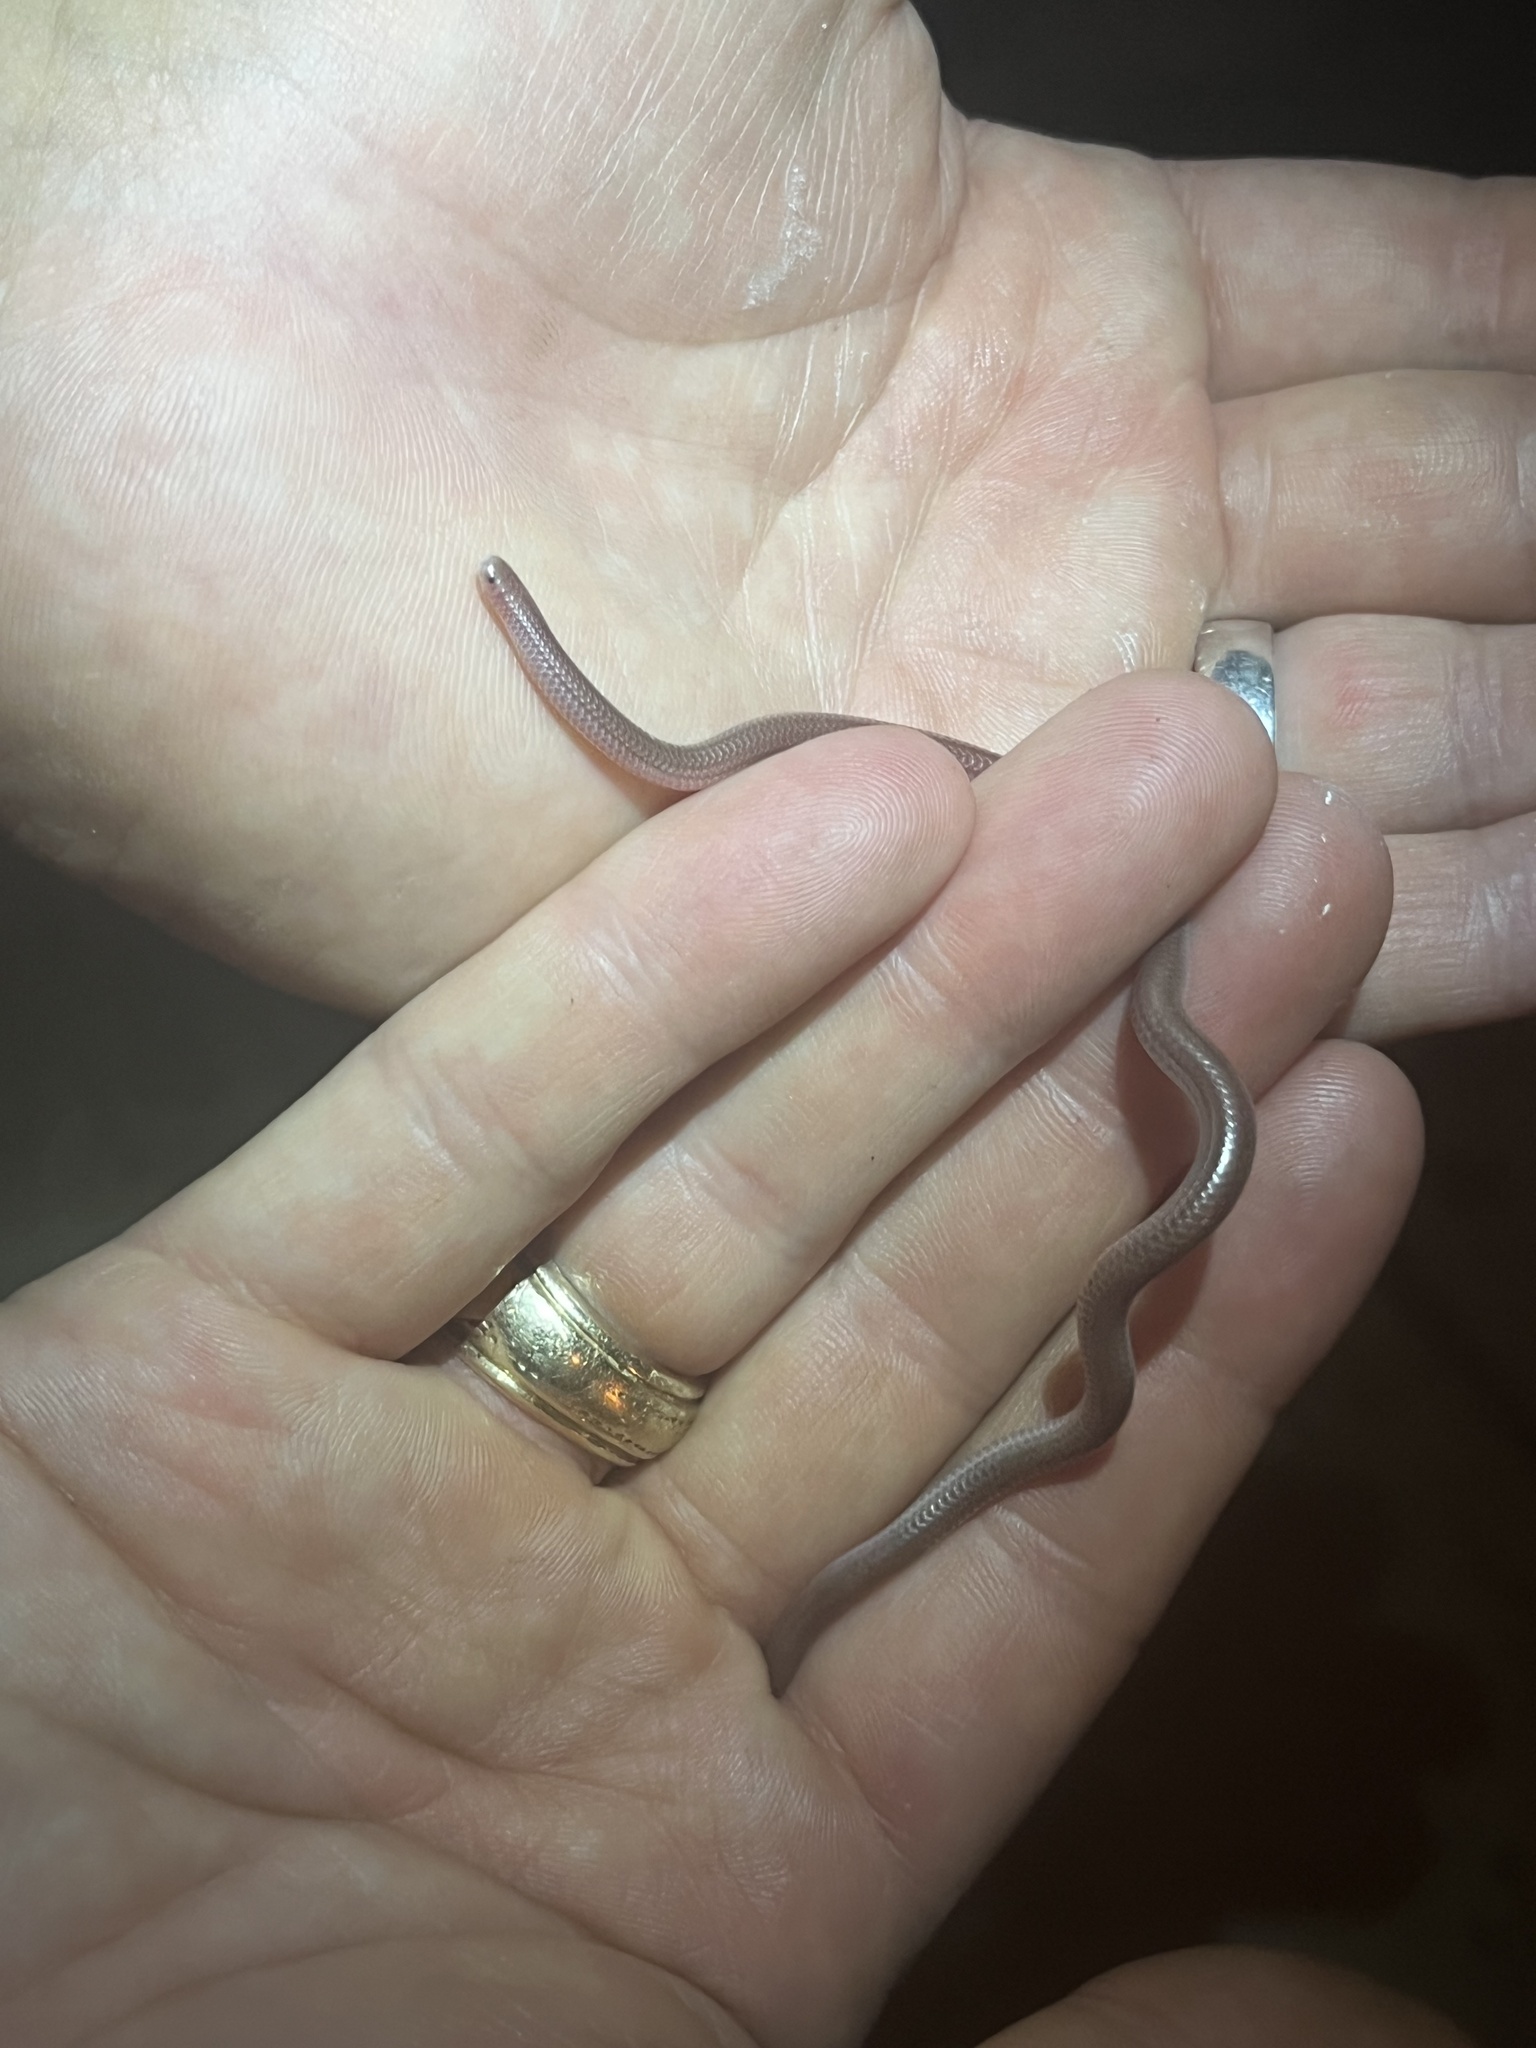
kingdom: Animalia
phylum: Chordata
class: Squamata
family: Leptotyphlopidae
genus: Rena
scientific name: Rena dulcis
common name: Texas blind snake
